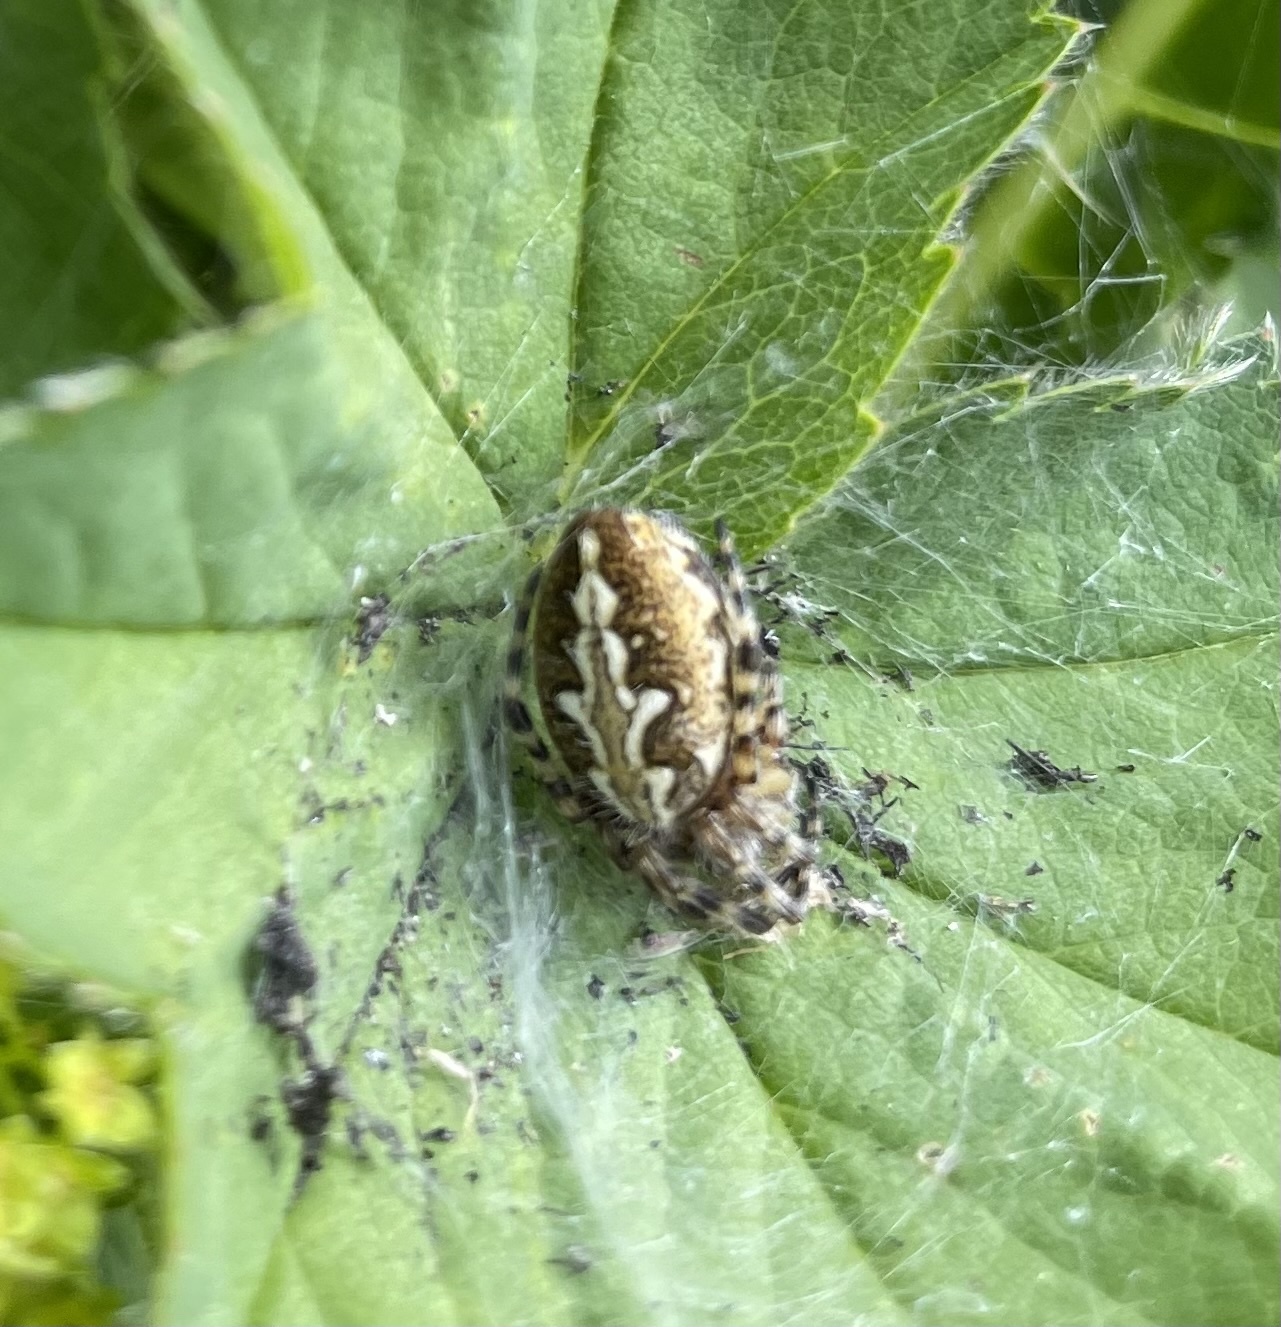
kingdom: Animalia
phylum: Arthropoda
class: Arachnida
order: Araneae
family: Araneidae
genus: Aculepeira
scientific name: Aculepeira ceropegia
